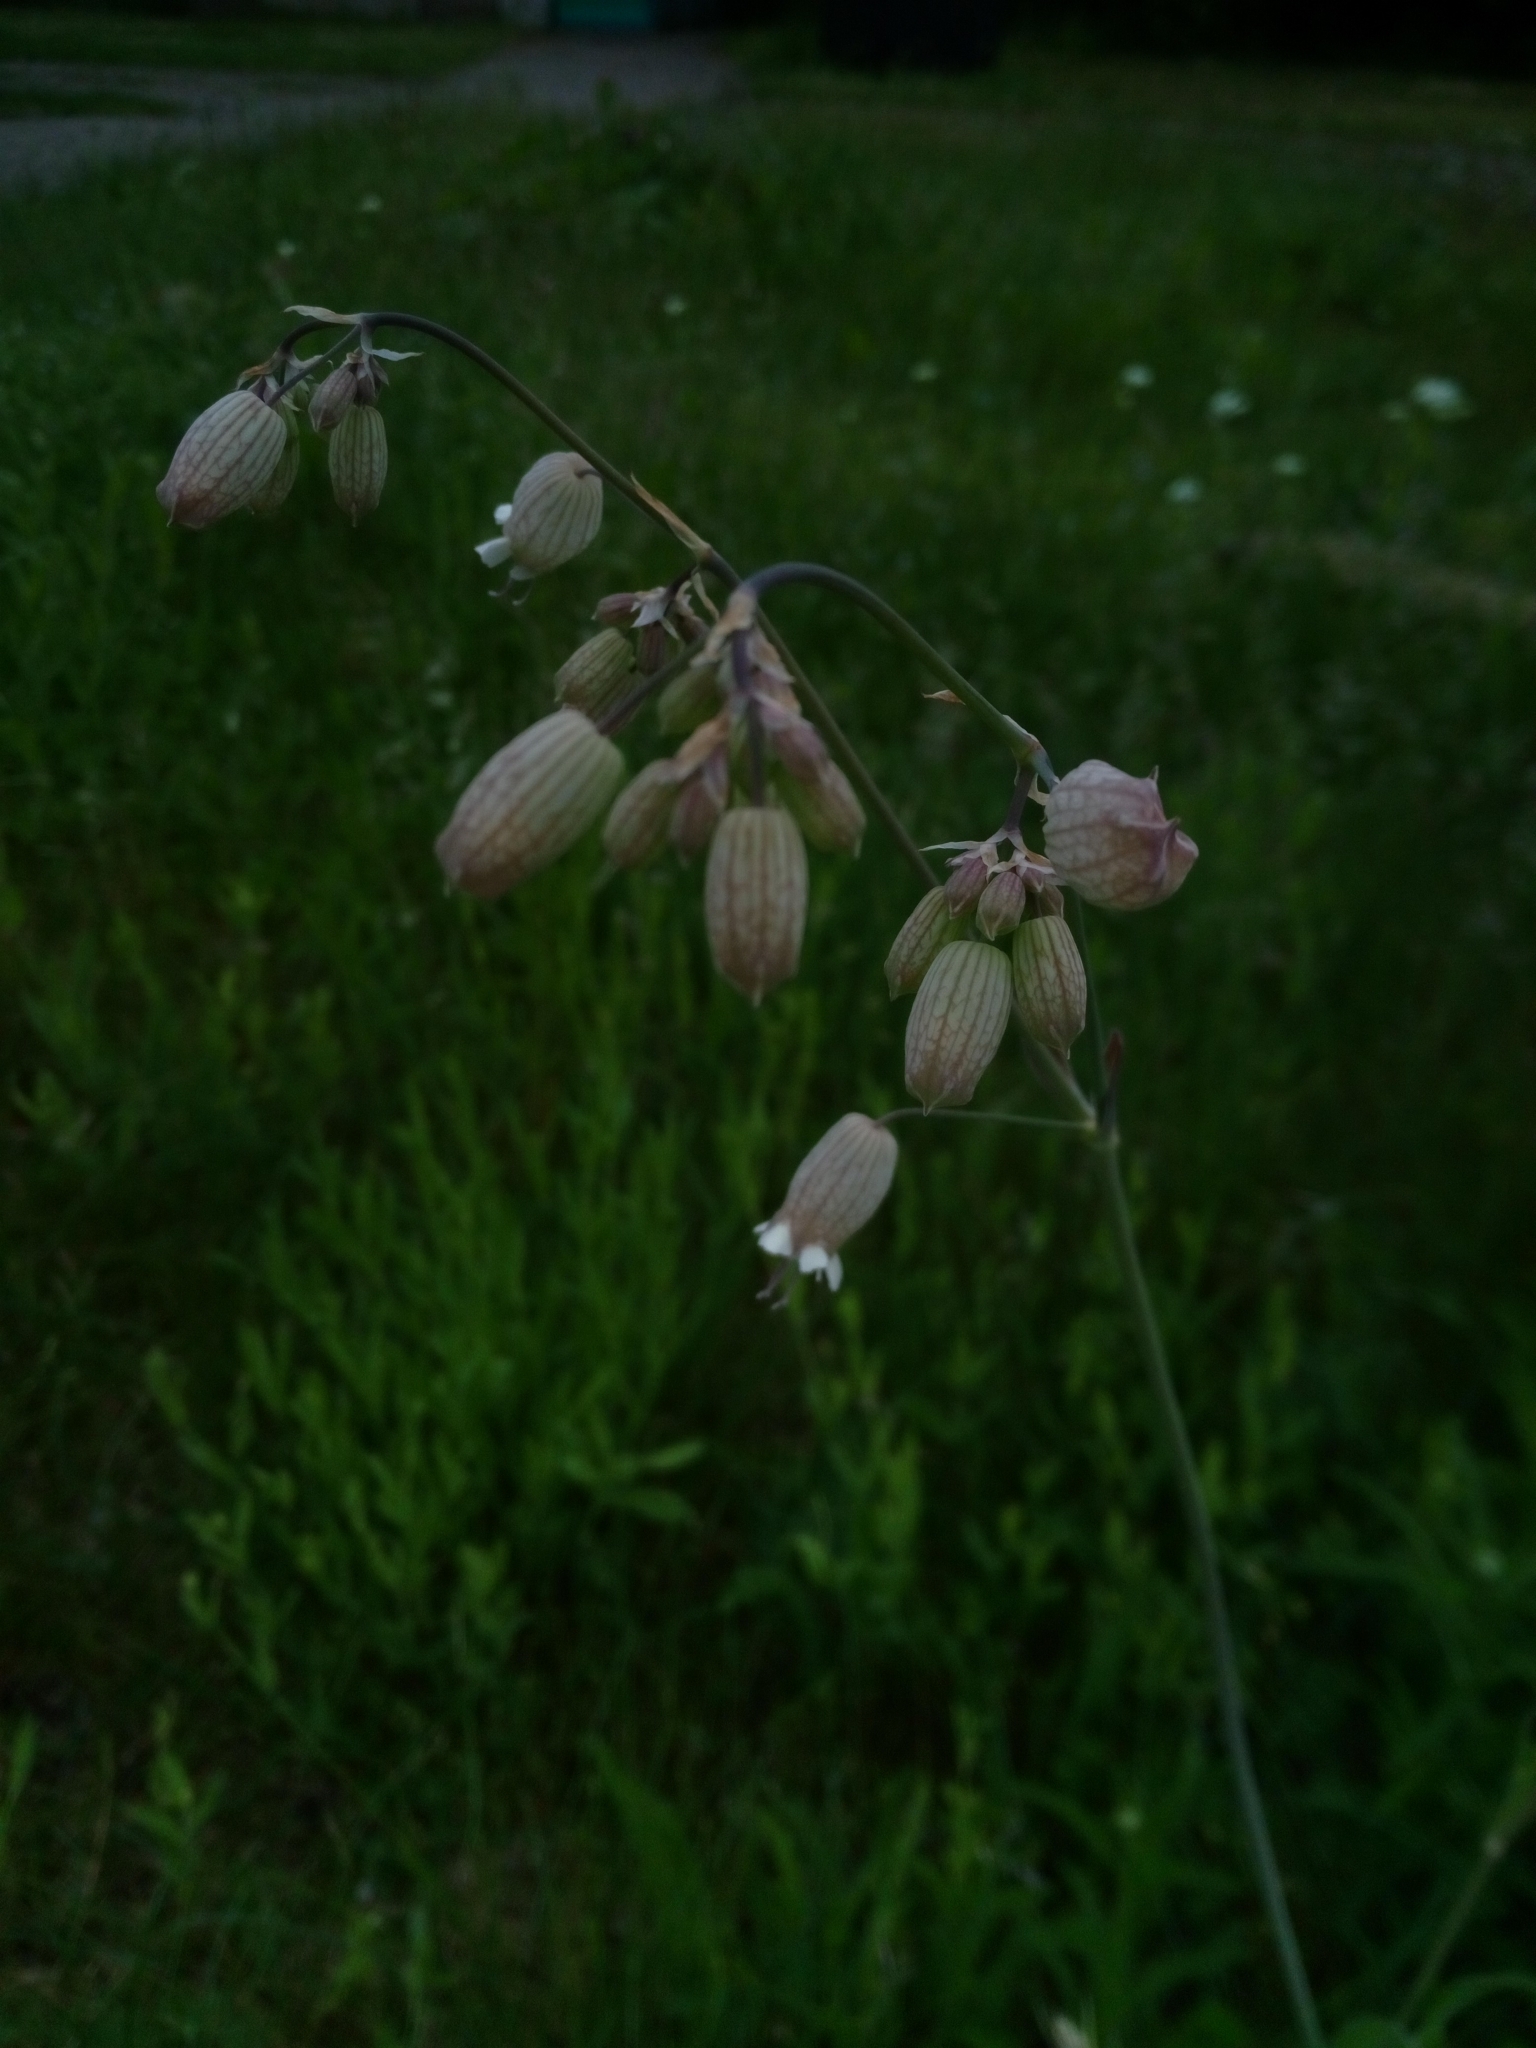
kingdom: Plantae
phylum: Tracheophyta
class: Magnoliopsida
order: Caryophyllales
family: Caryophyllaceae
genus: Silene
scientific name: Silene vulgaris
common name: Bladder campion
